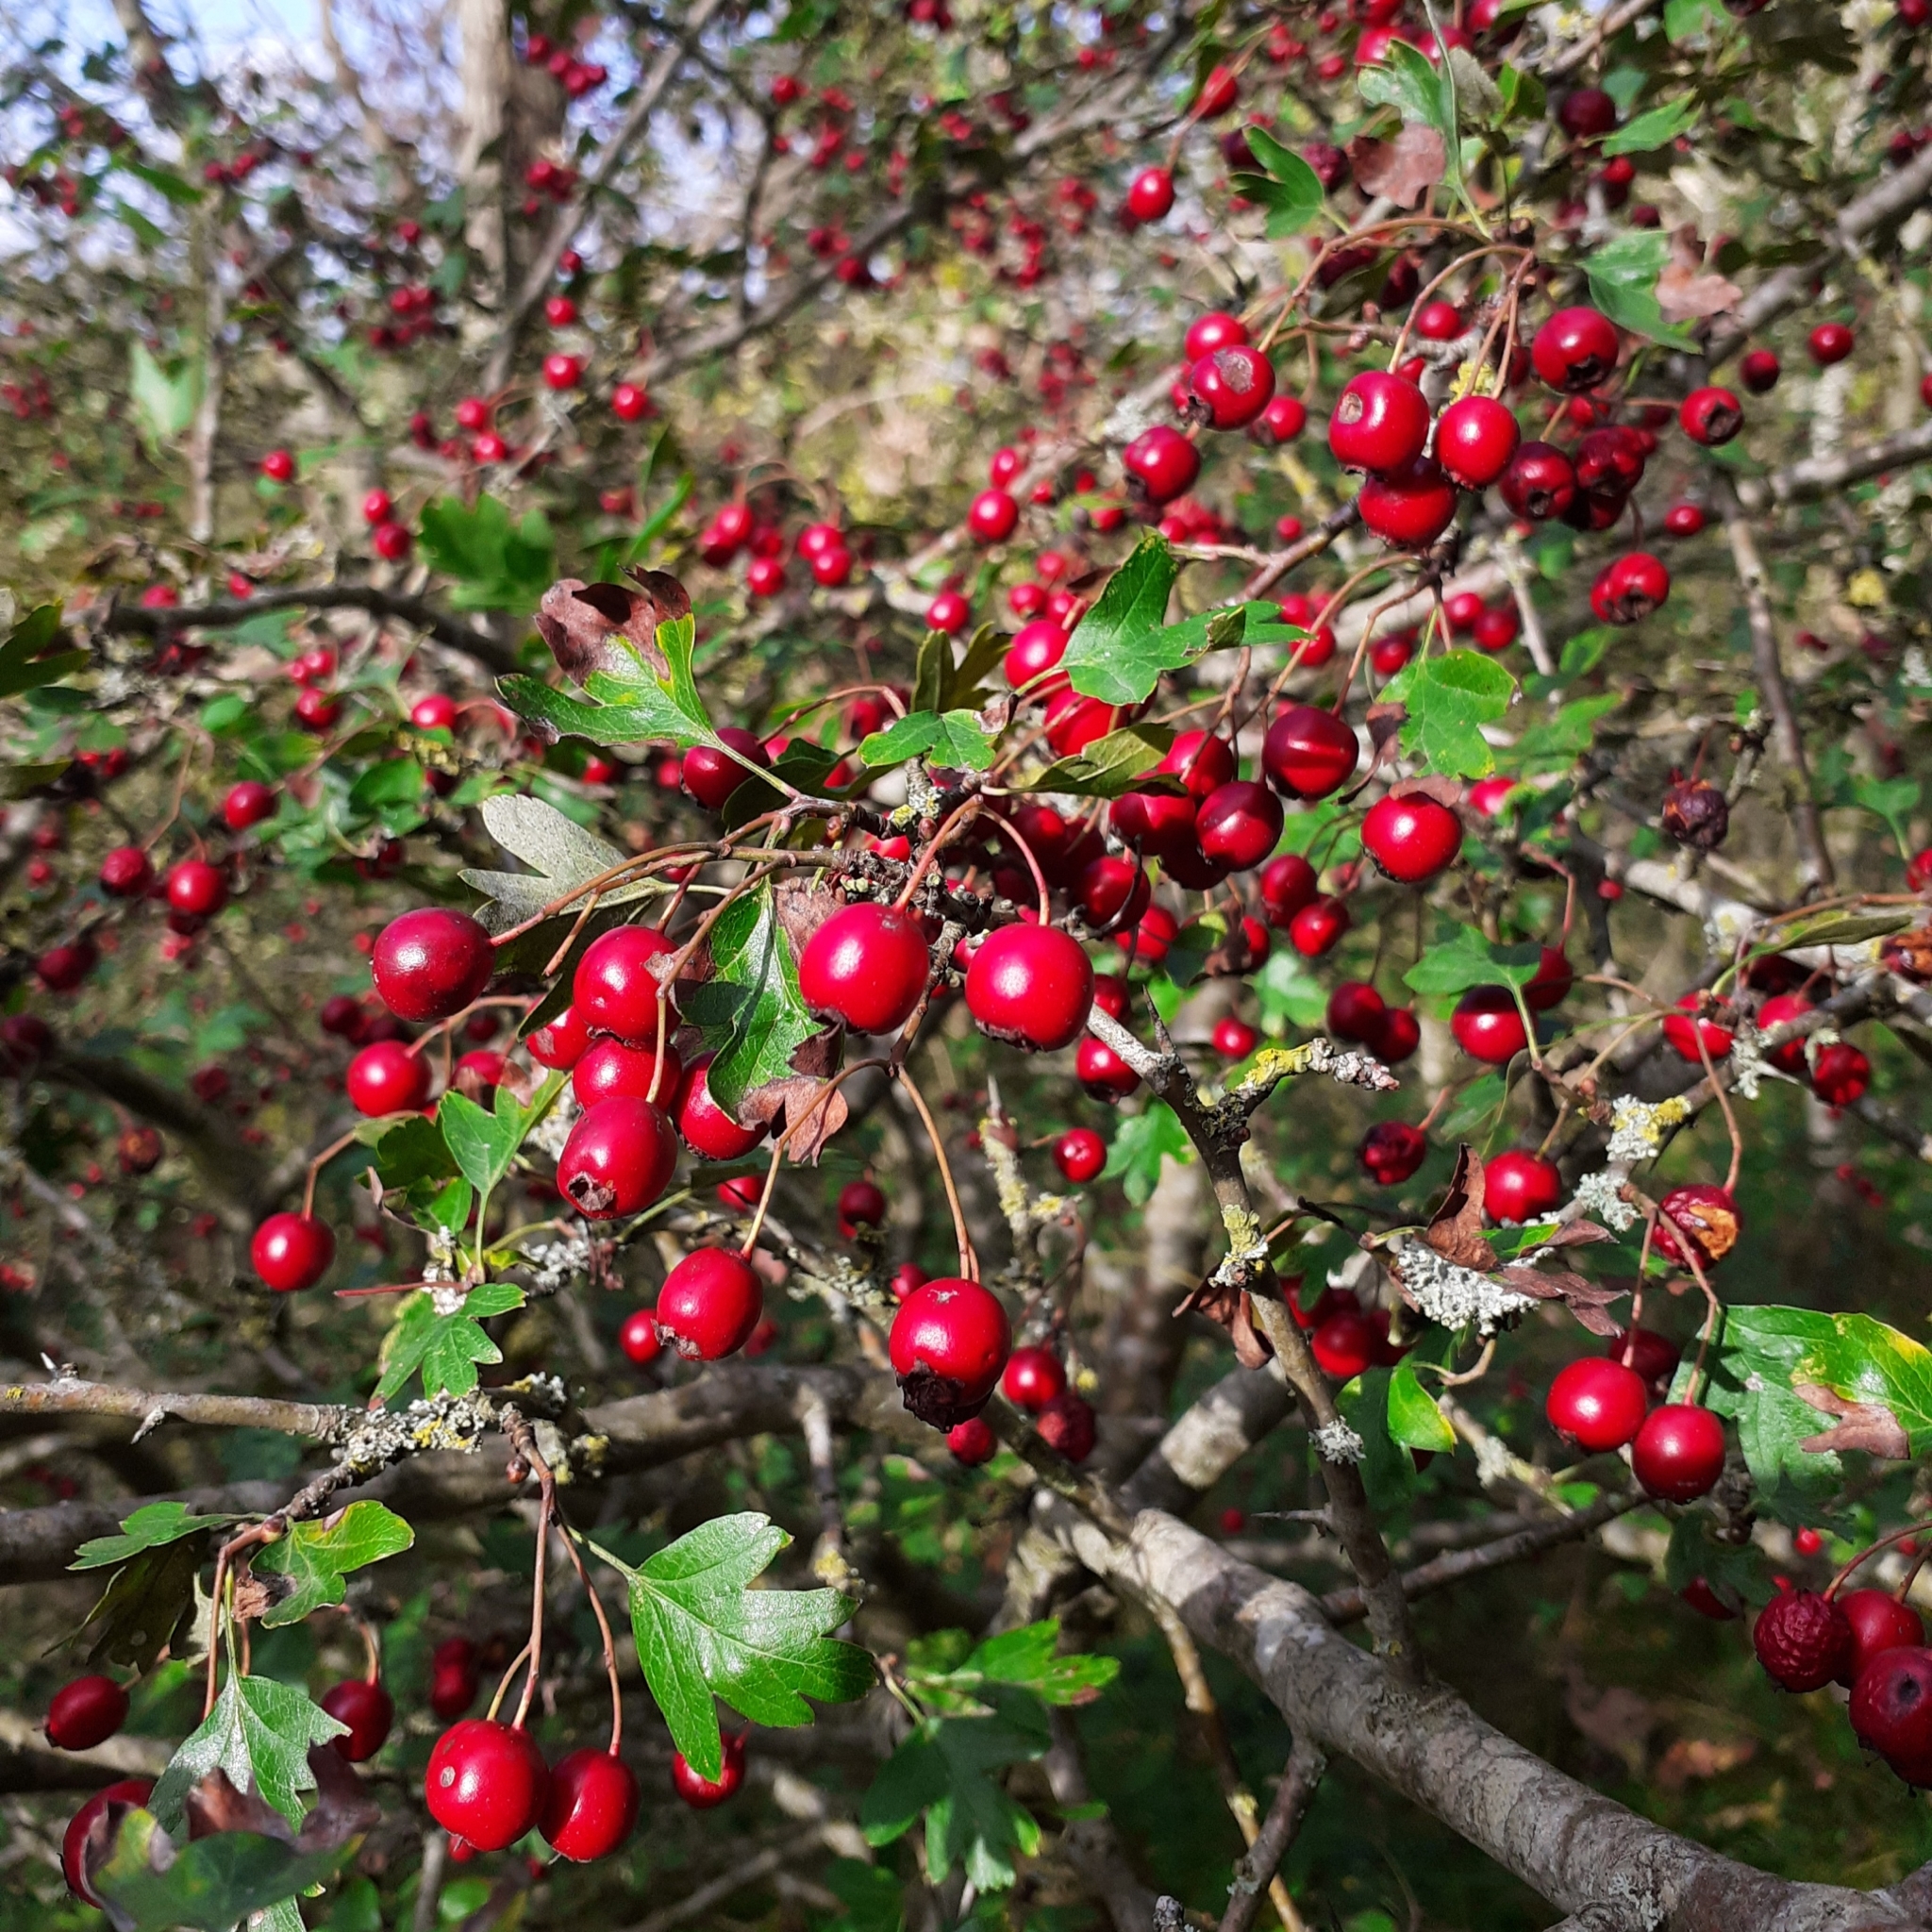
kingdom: Plantae
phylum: Tracheophyta
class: Magnoliopsida
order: Rosales
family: Rosaceae
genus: Crataegus
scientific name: Crataegus monogyna
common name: Hawthorn
